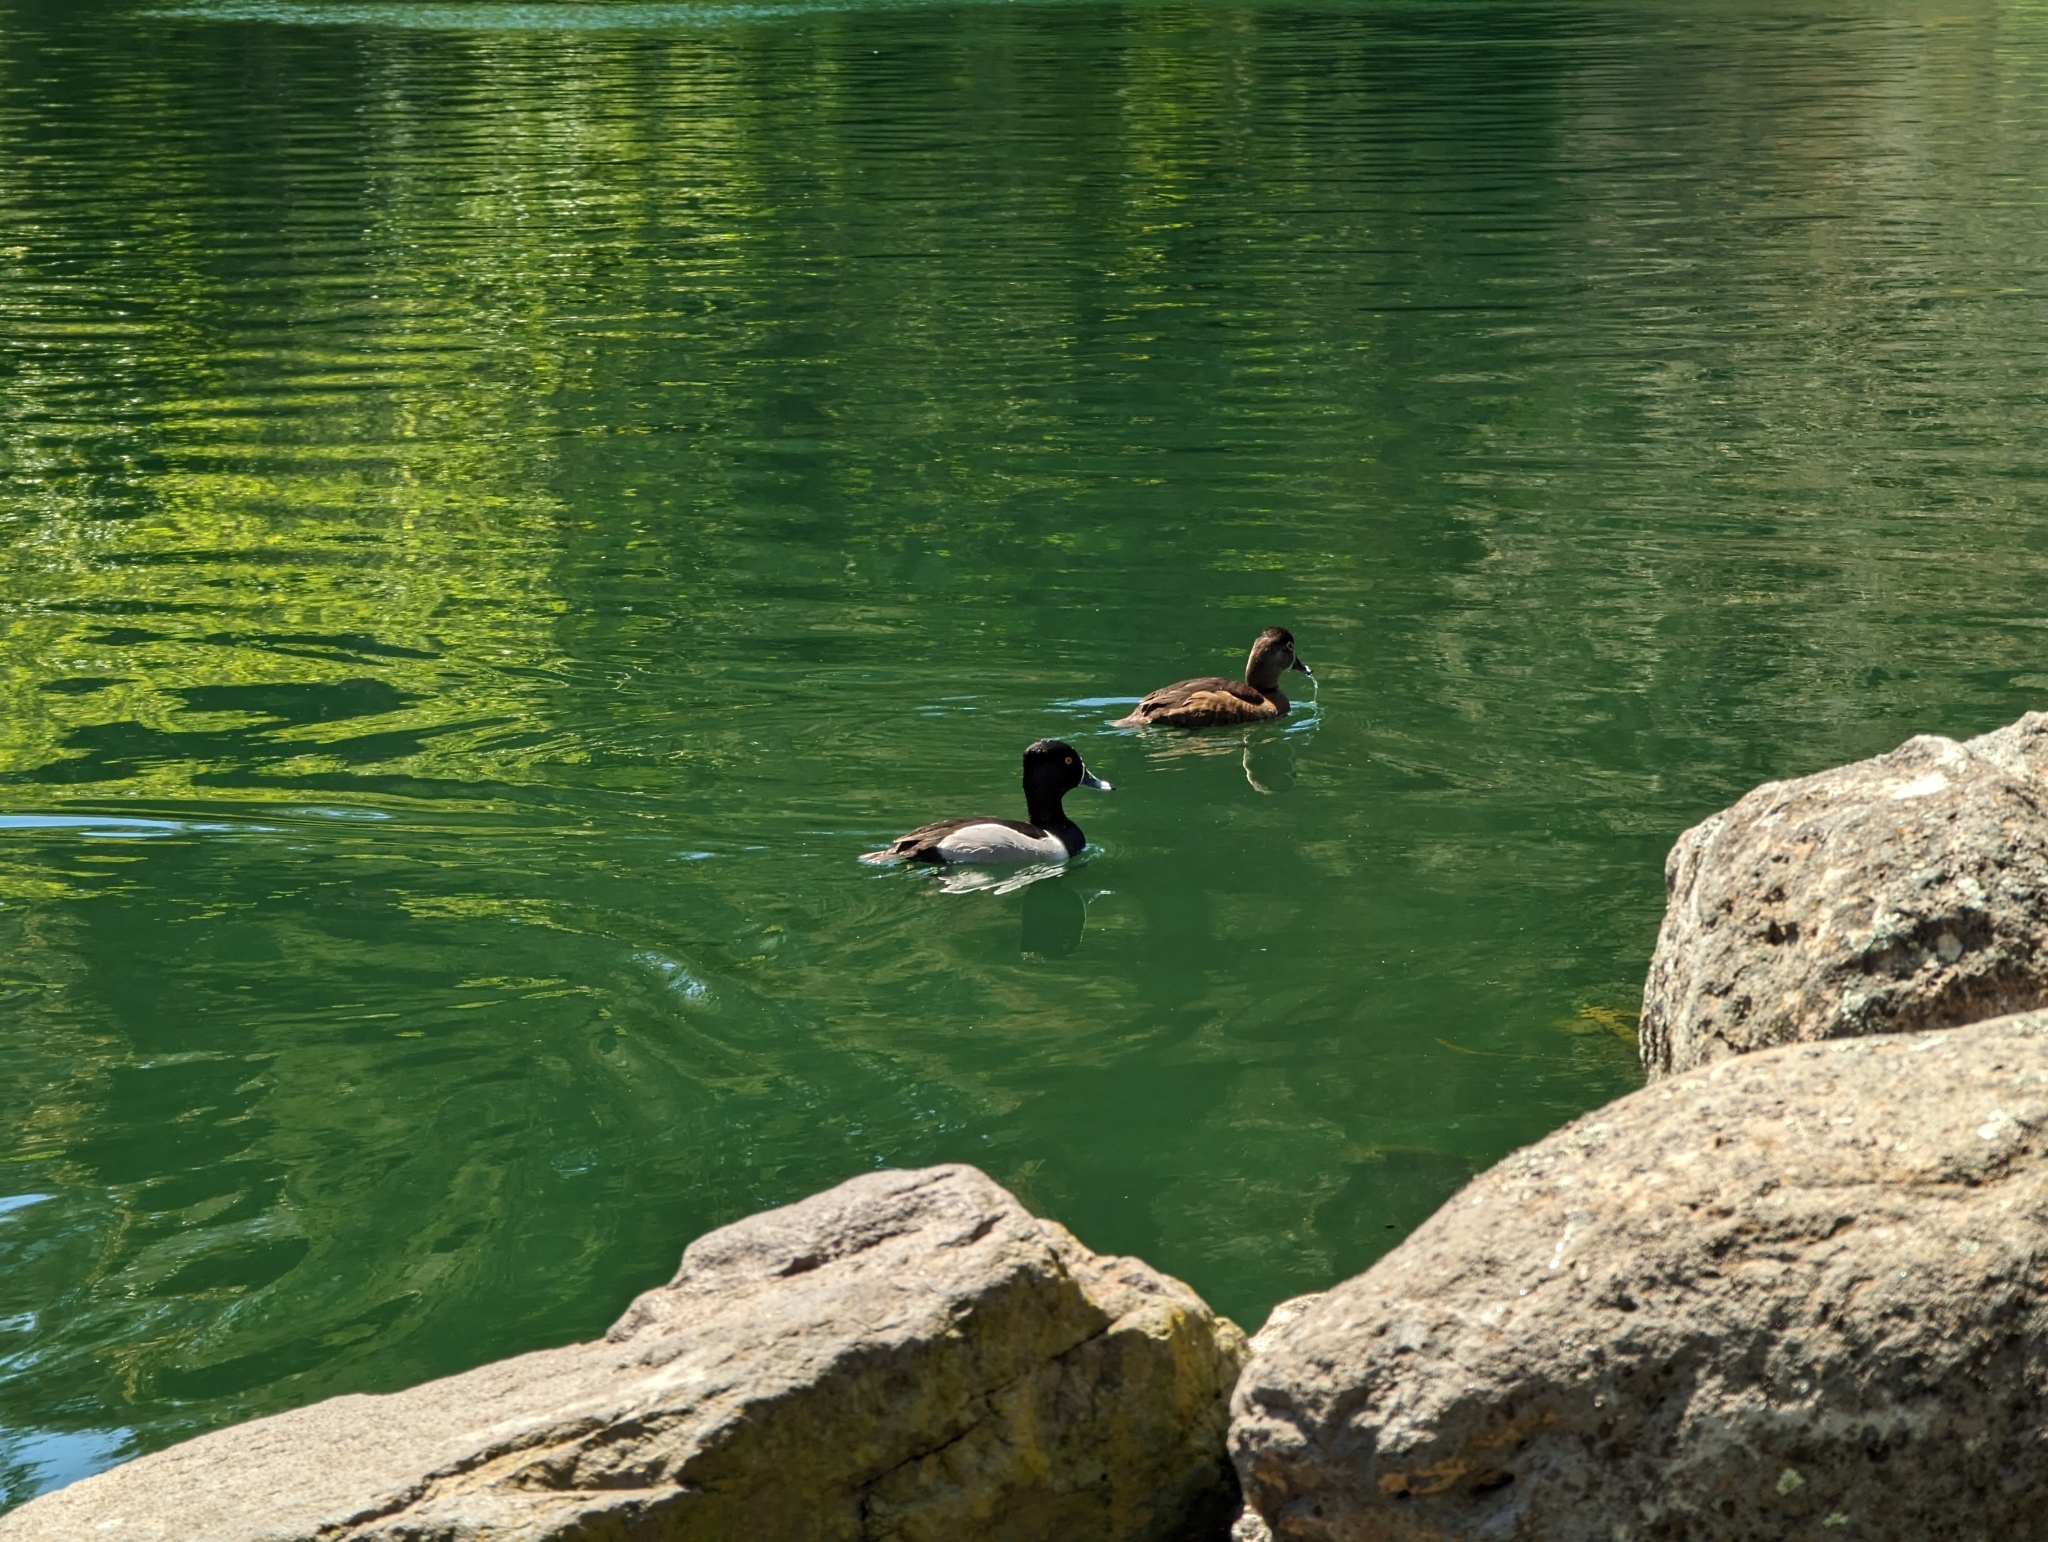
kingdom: Animalia
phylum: Chordata
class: Aves
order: Anseriformes
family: Anatidae
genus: Aythya
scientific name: Aythya collaris
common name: Ring-necked duck
